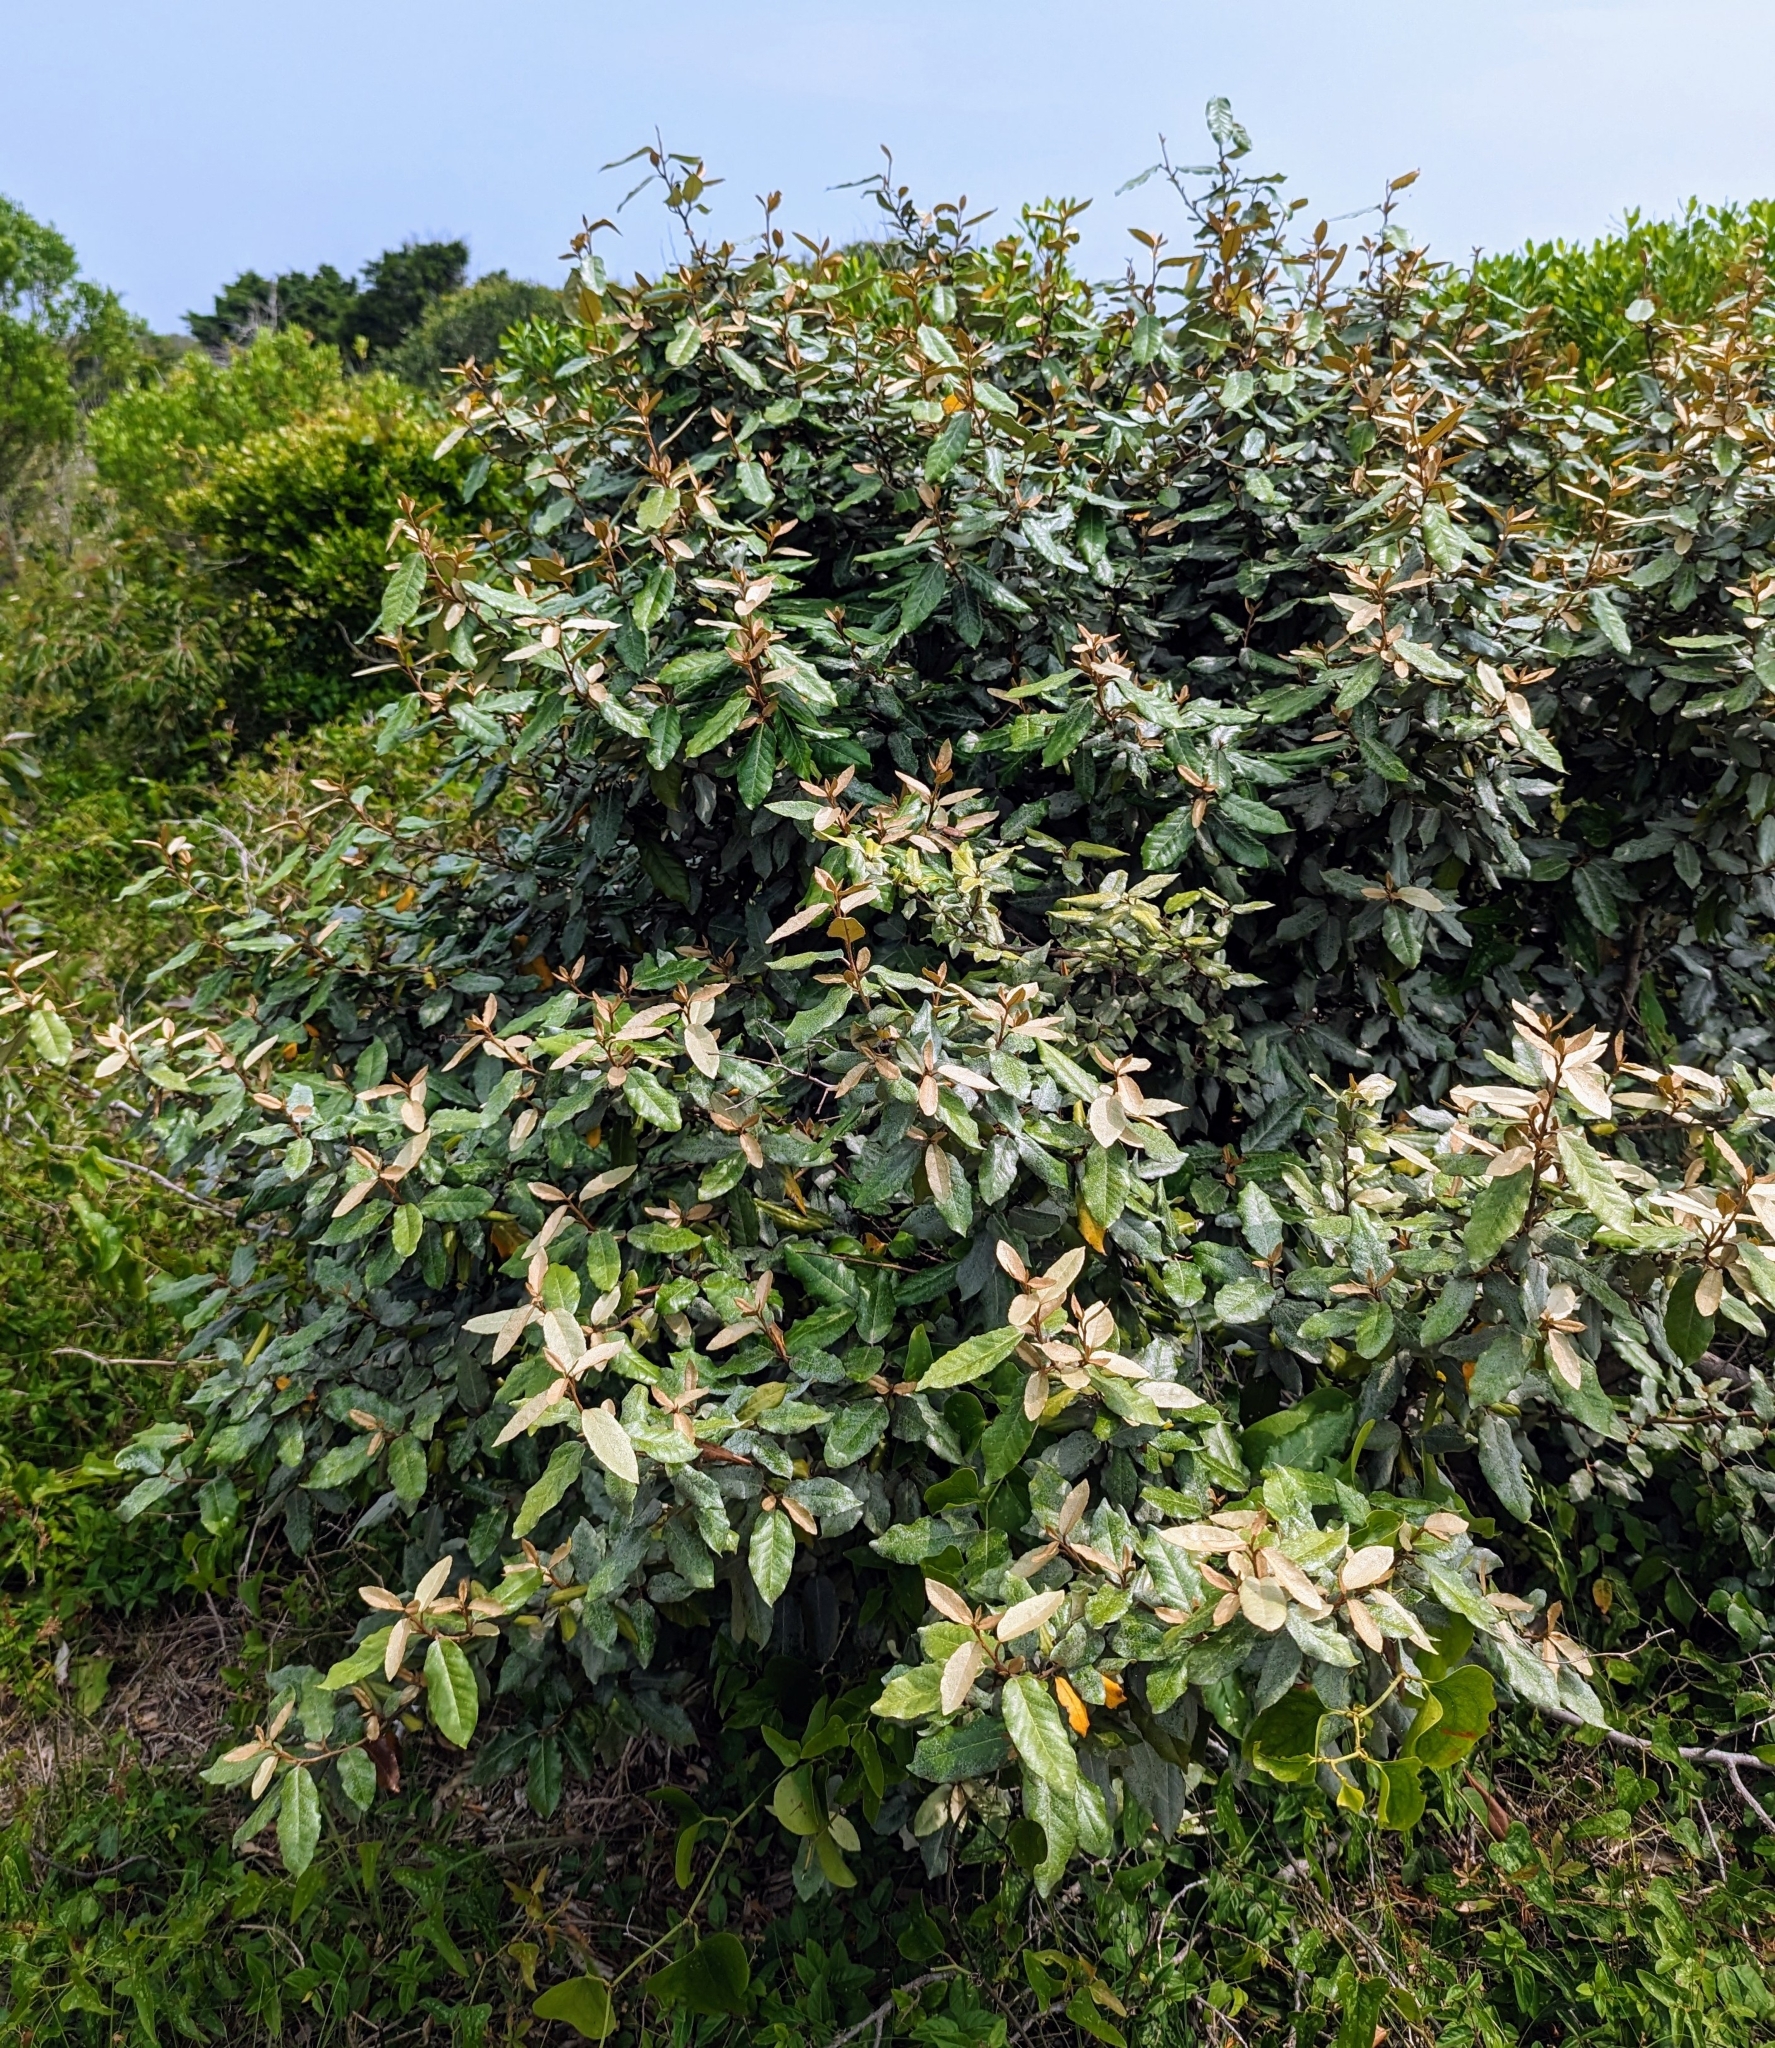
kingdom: Plantae
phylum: Tracheophyta
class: Magnoliopsida
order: Rosales
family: Elaeagnaceae
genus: Elaeagnus
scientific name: Elaeagnus pungens
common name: Spiny oleaster
